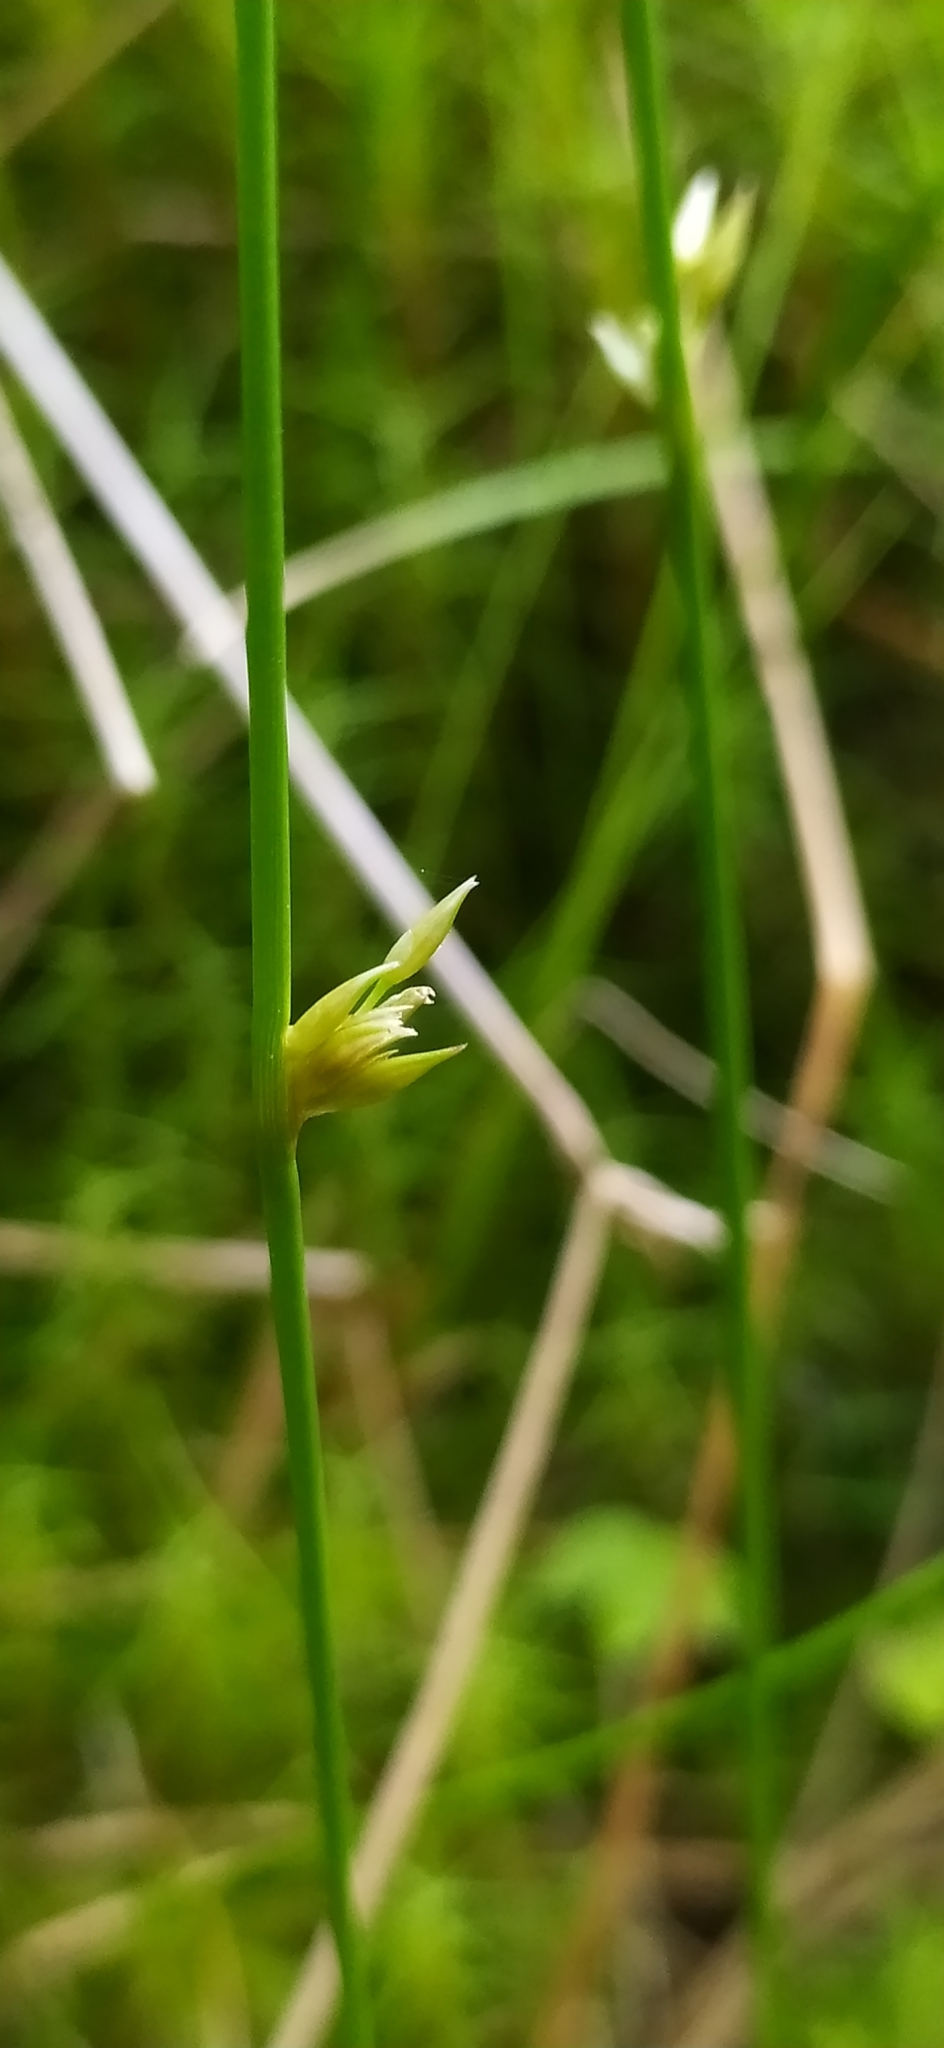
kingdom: Plantae
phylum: Tracheophyta
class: Liliopsida
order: Poales
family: Juncaceae
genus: Juncus
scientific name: Juncus filiformis
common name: Thread rush
